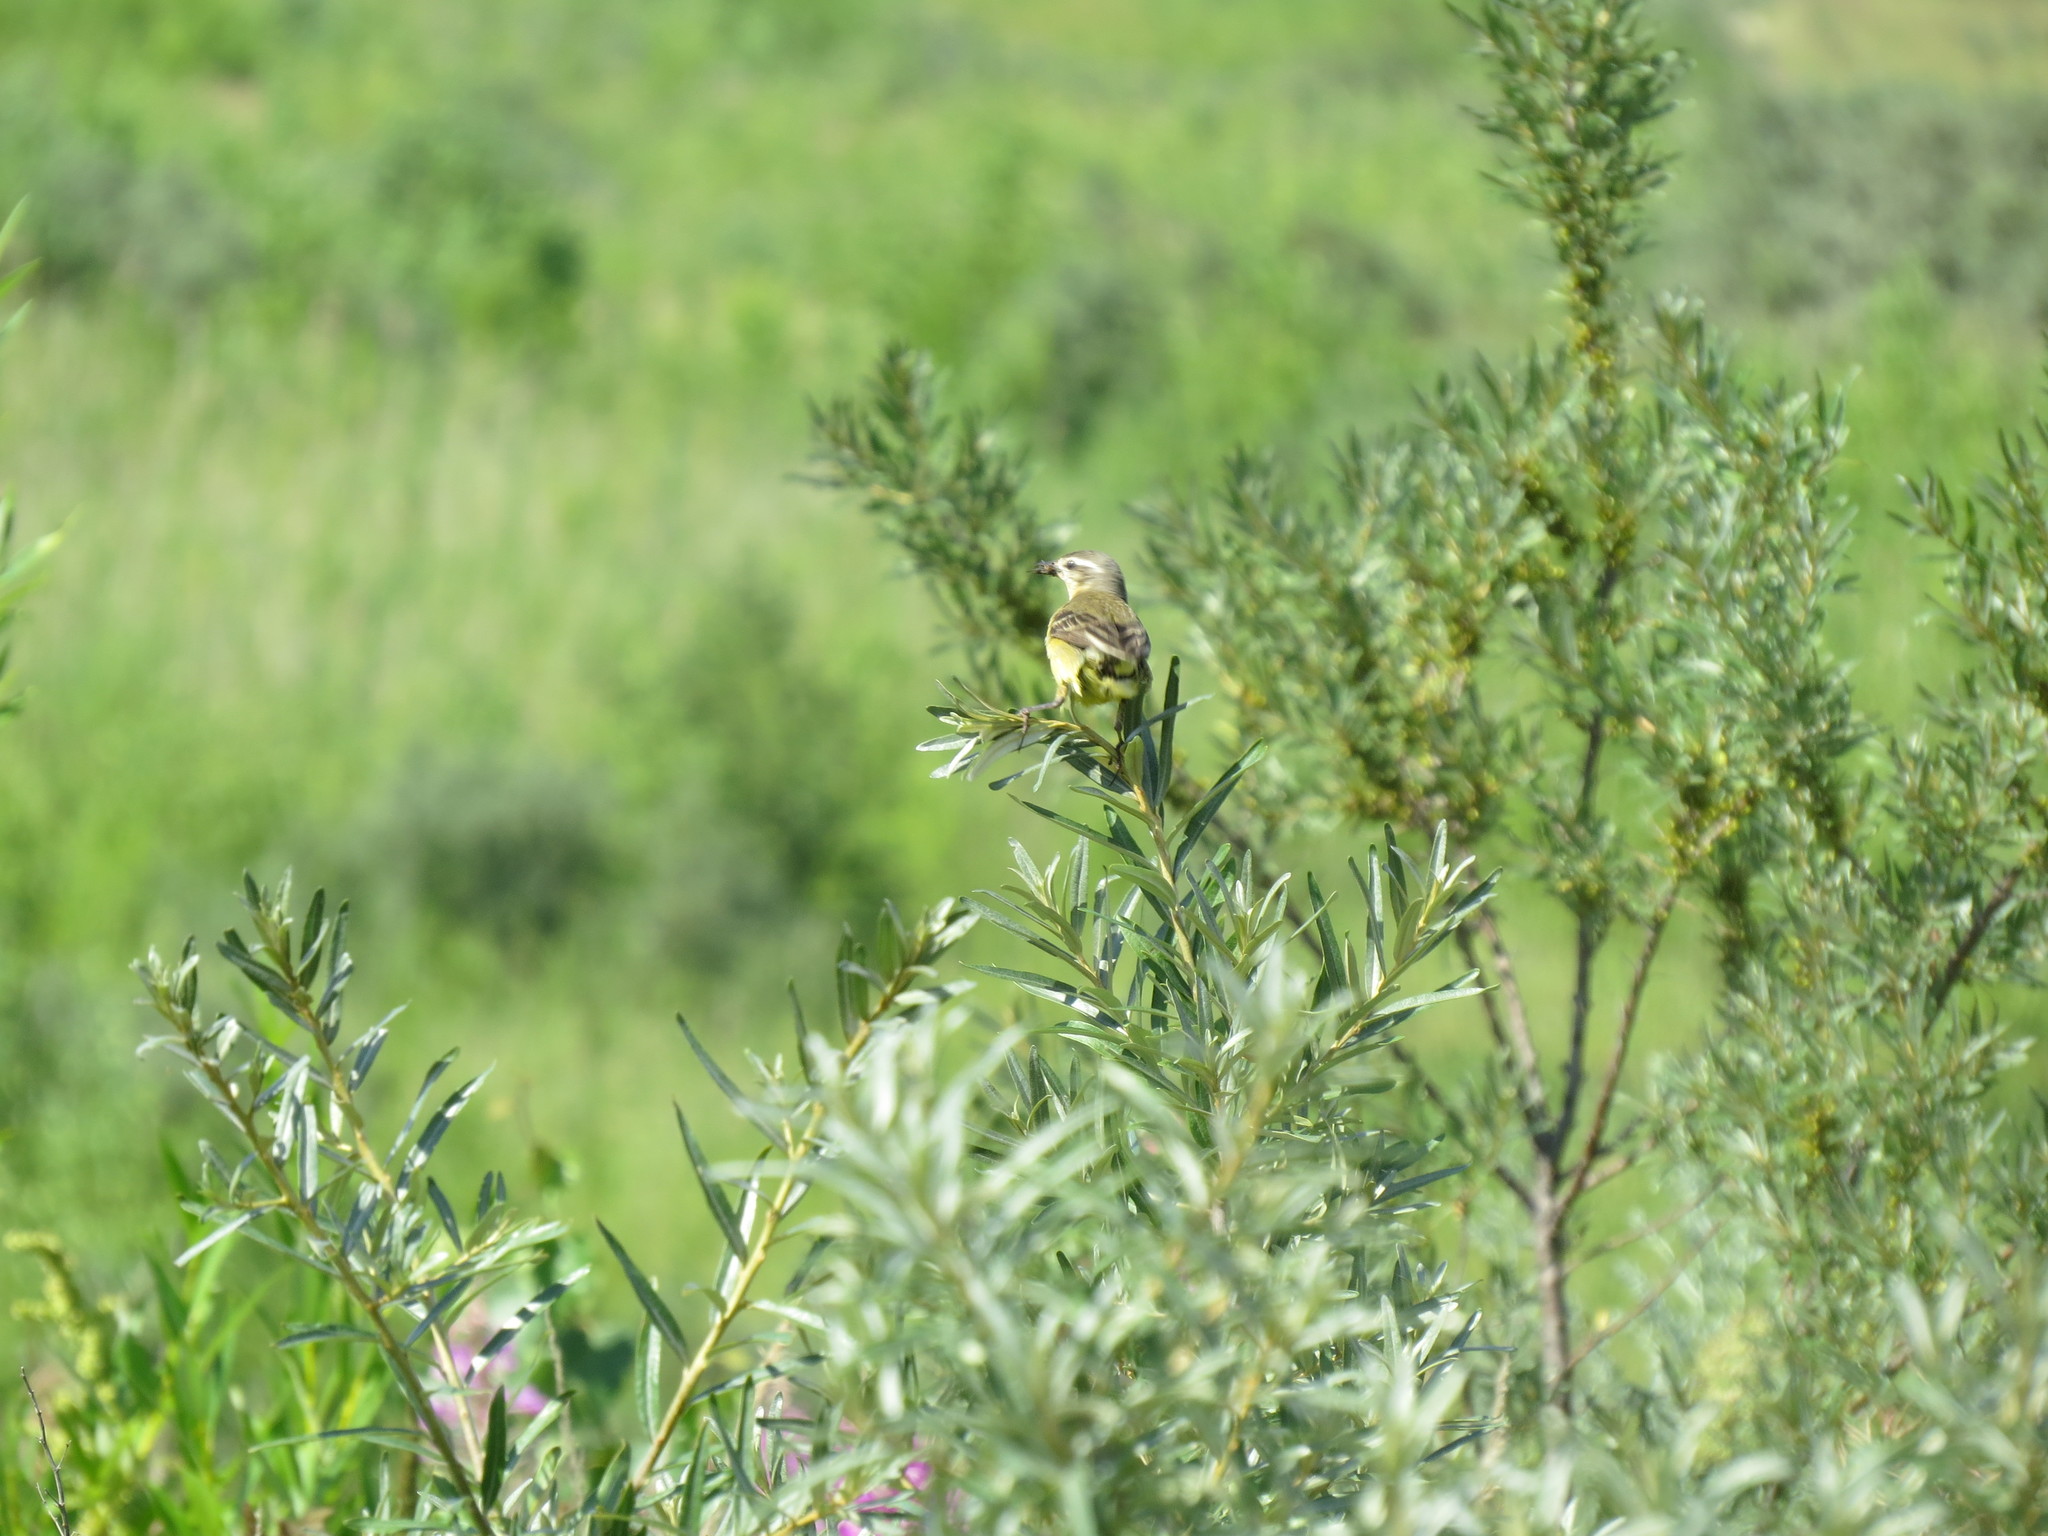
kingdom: Animalia
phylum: Chordata
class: Aves
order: Passeriformes
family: Motacillidae
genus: Motacilla
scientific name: Motacilla flava
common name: Western yellow wagtail
